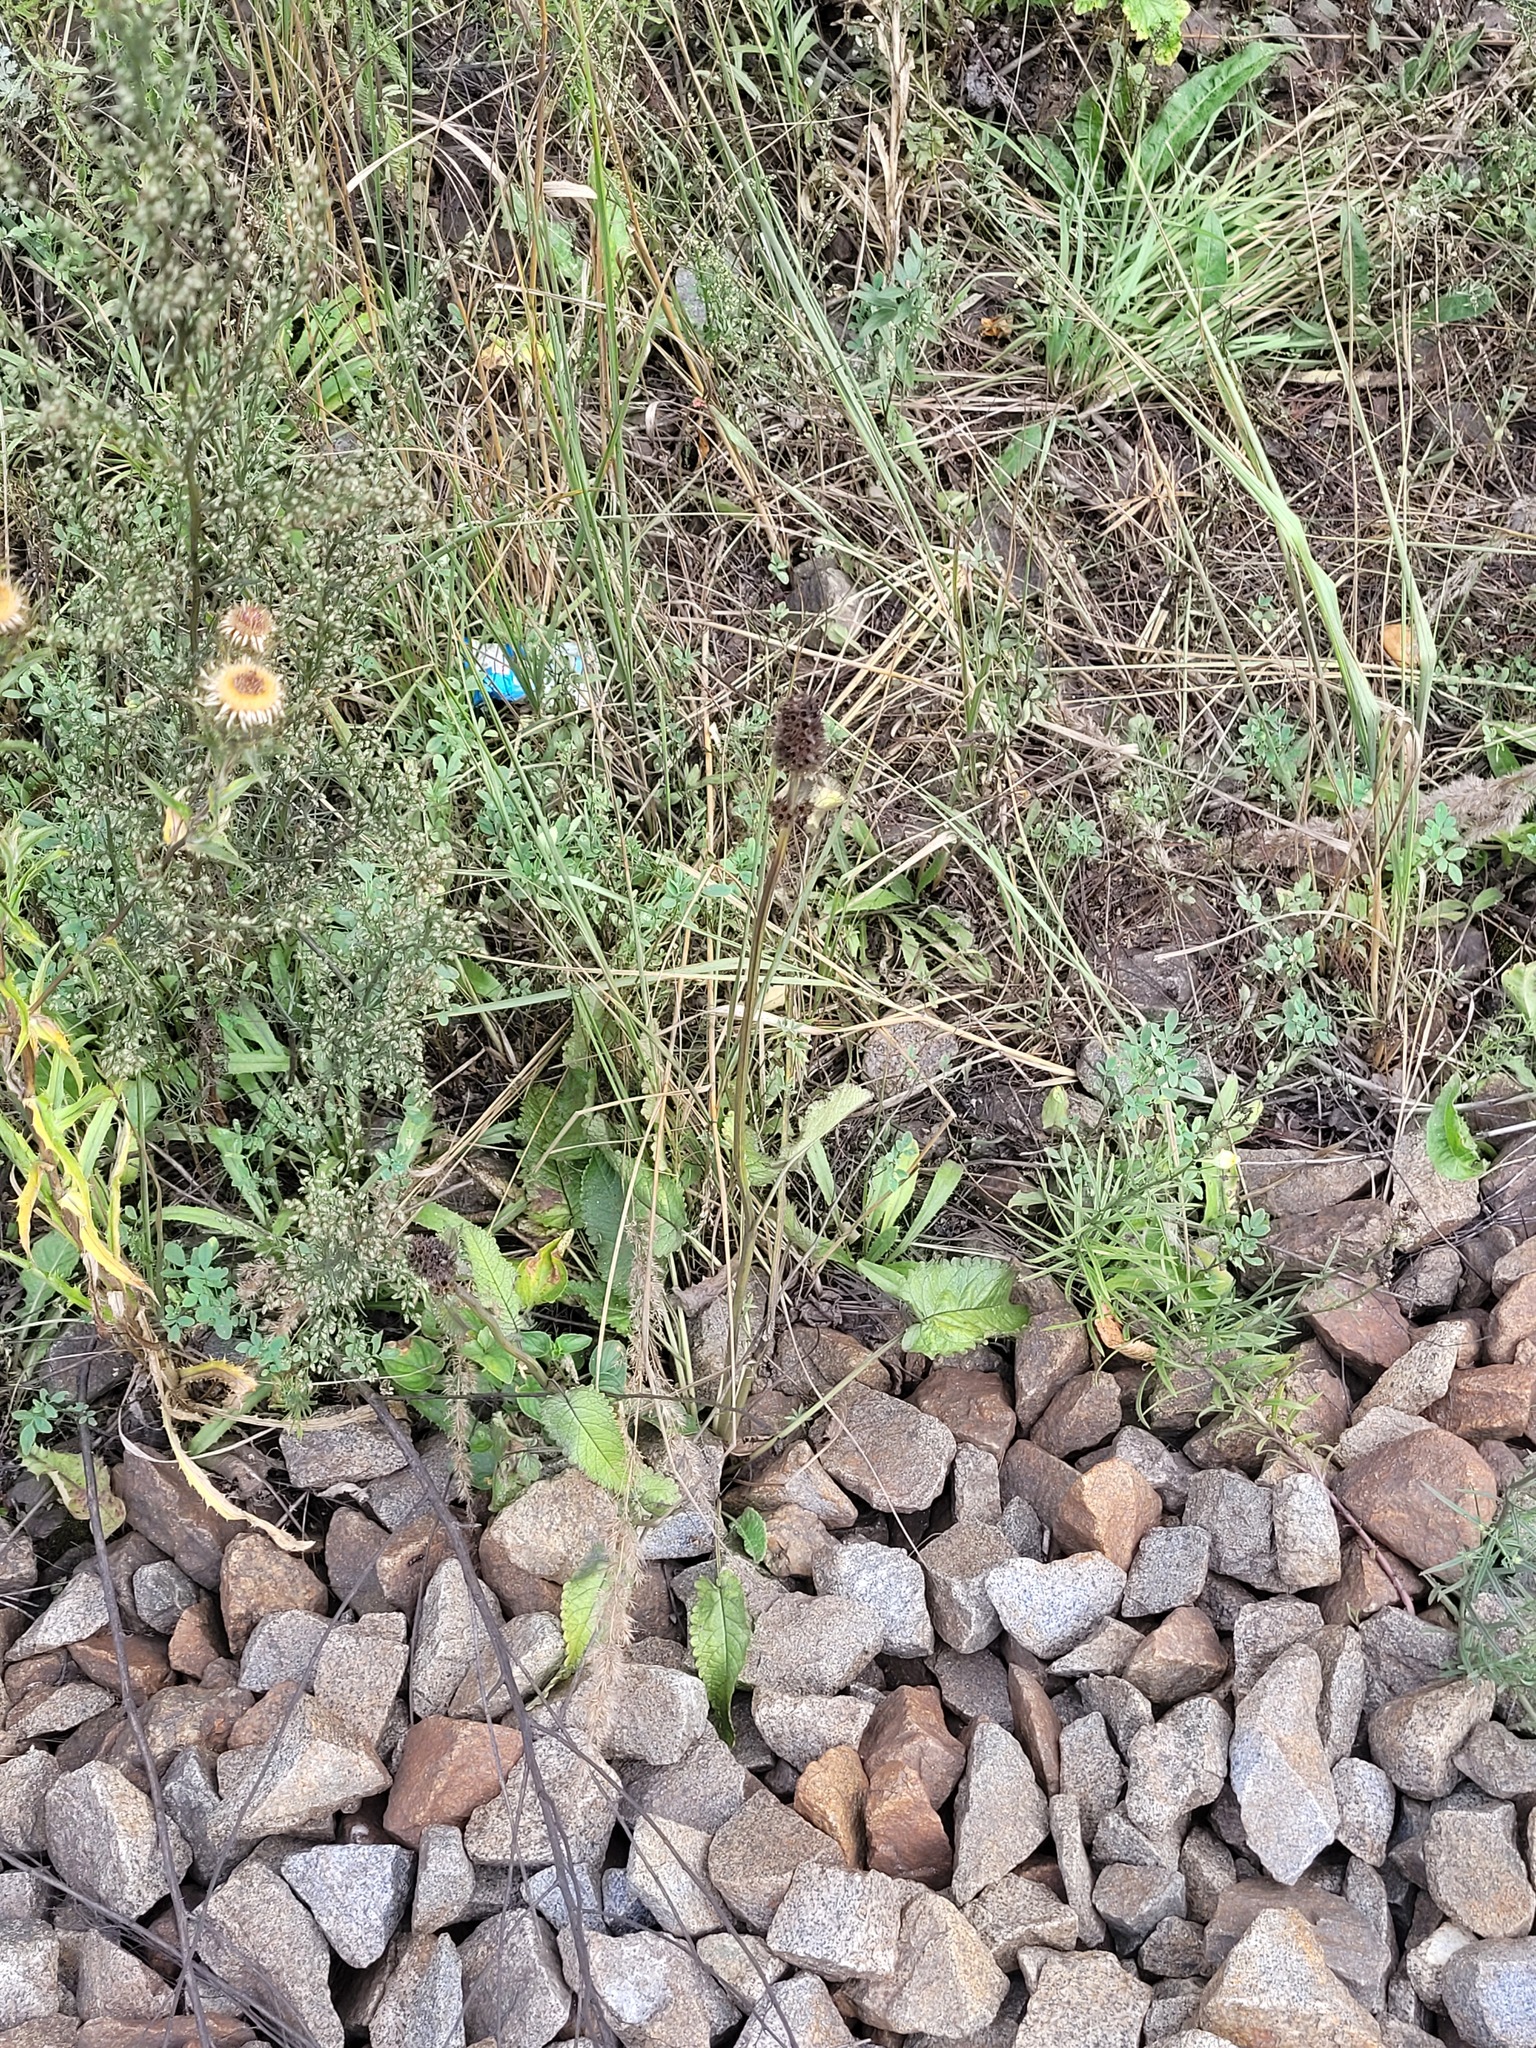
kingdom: Plantae
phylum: Tracheophyta
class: Magnoliopsida
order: Lamiales
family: Lamiaceae
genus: Betonica
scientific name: Betonica officinalis
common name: Bishop's-wort
